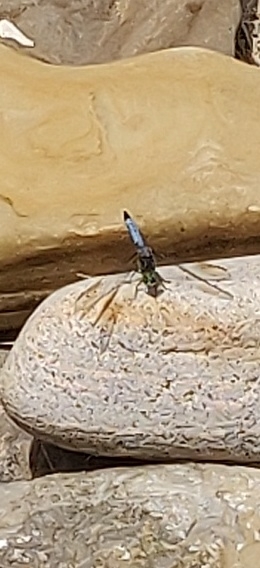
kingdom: Animalia
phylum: Arthropoda
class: Insecta
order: Odonata
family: Libellulidae
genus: Pachydiplax
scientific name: Pachydiplax longipennis
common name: Blue dasher
